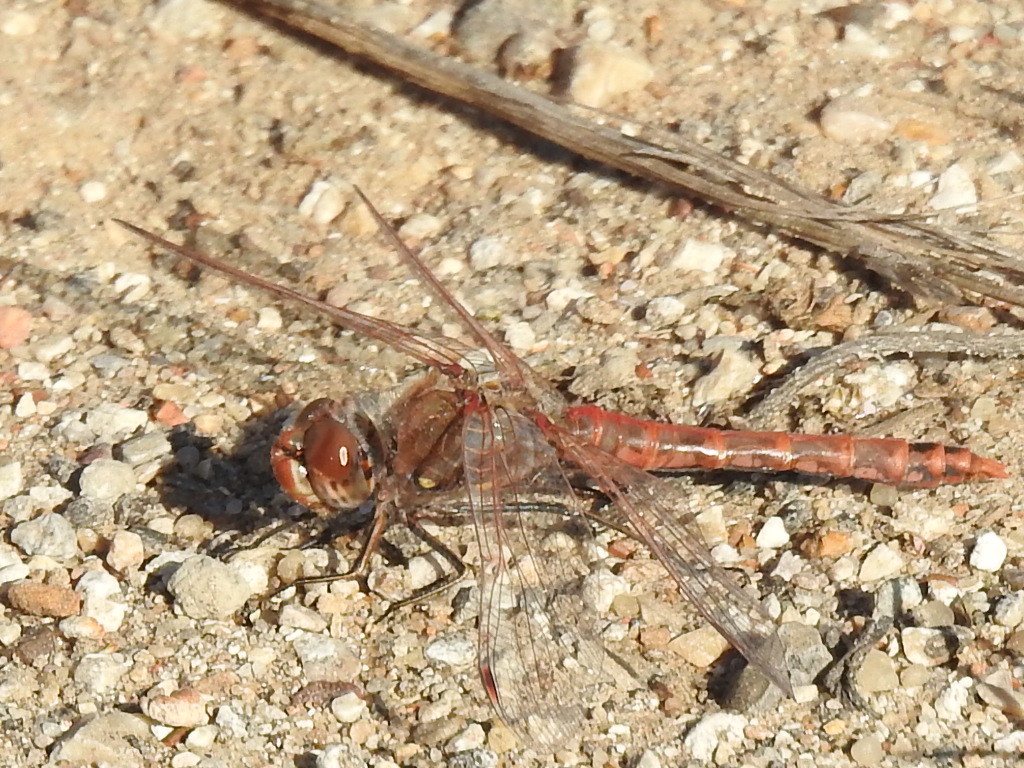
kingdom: Animalia
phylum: Arthropoda
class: Insecta
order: Odonata
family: Libellulidae
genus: Sympetrum
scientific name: Sympetrum corruptum
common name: Variegated meadowhawk
